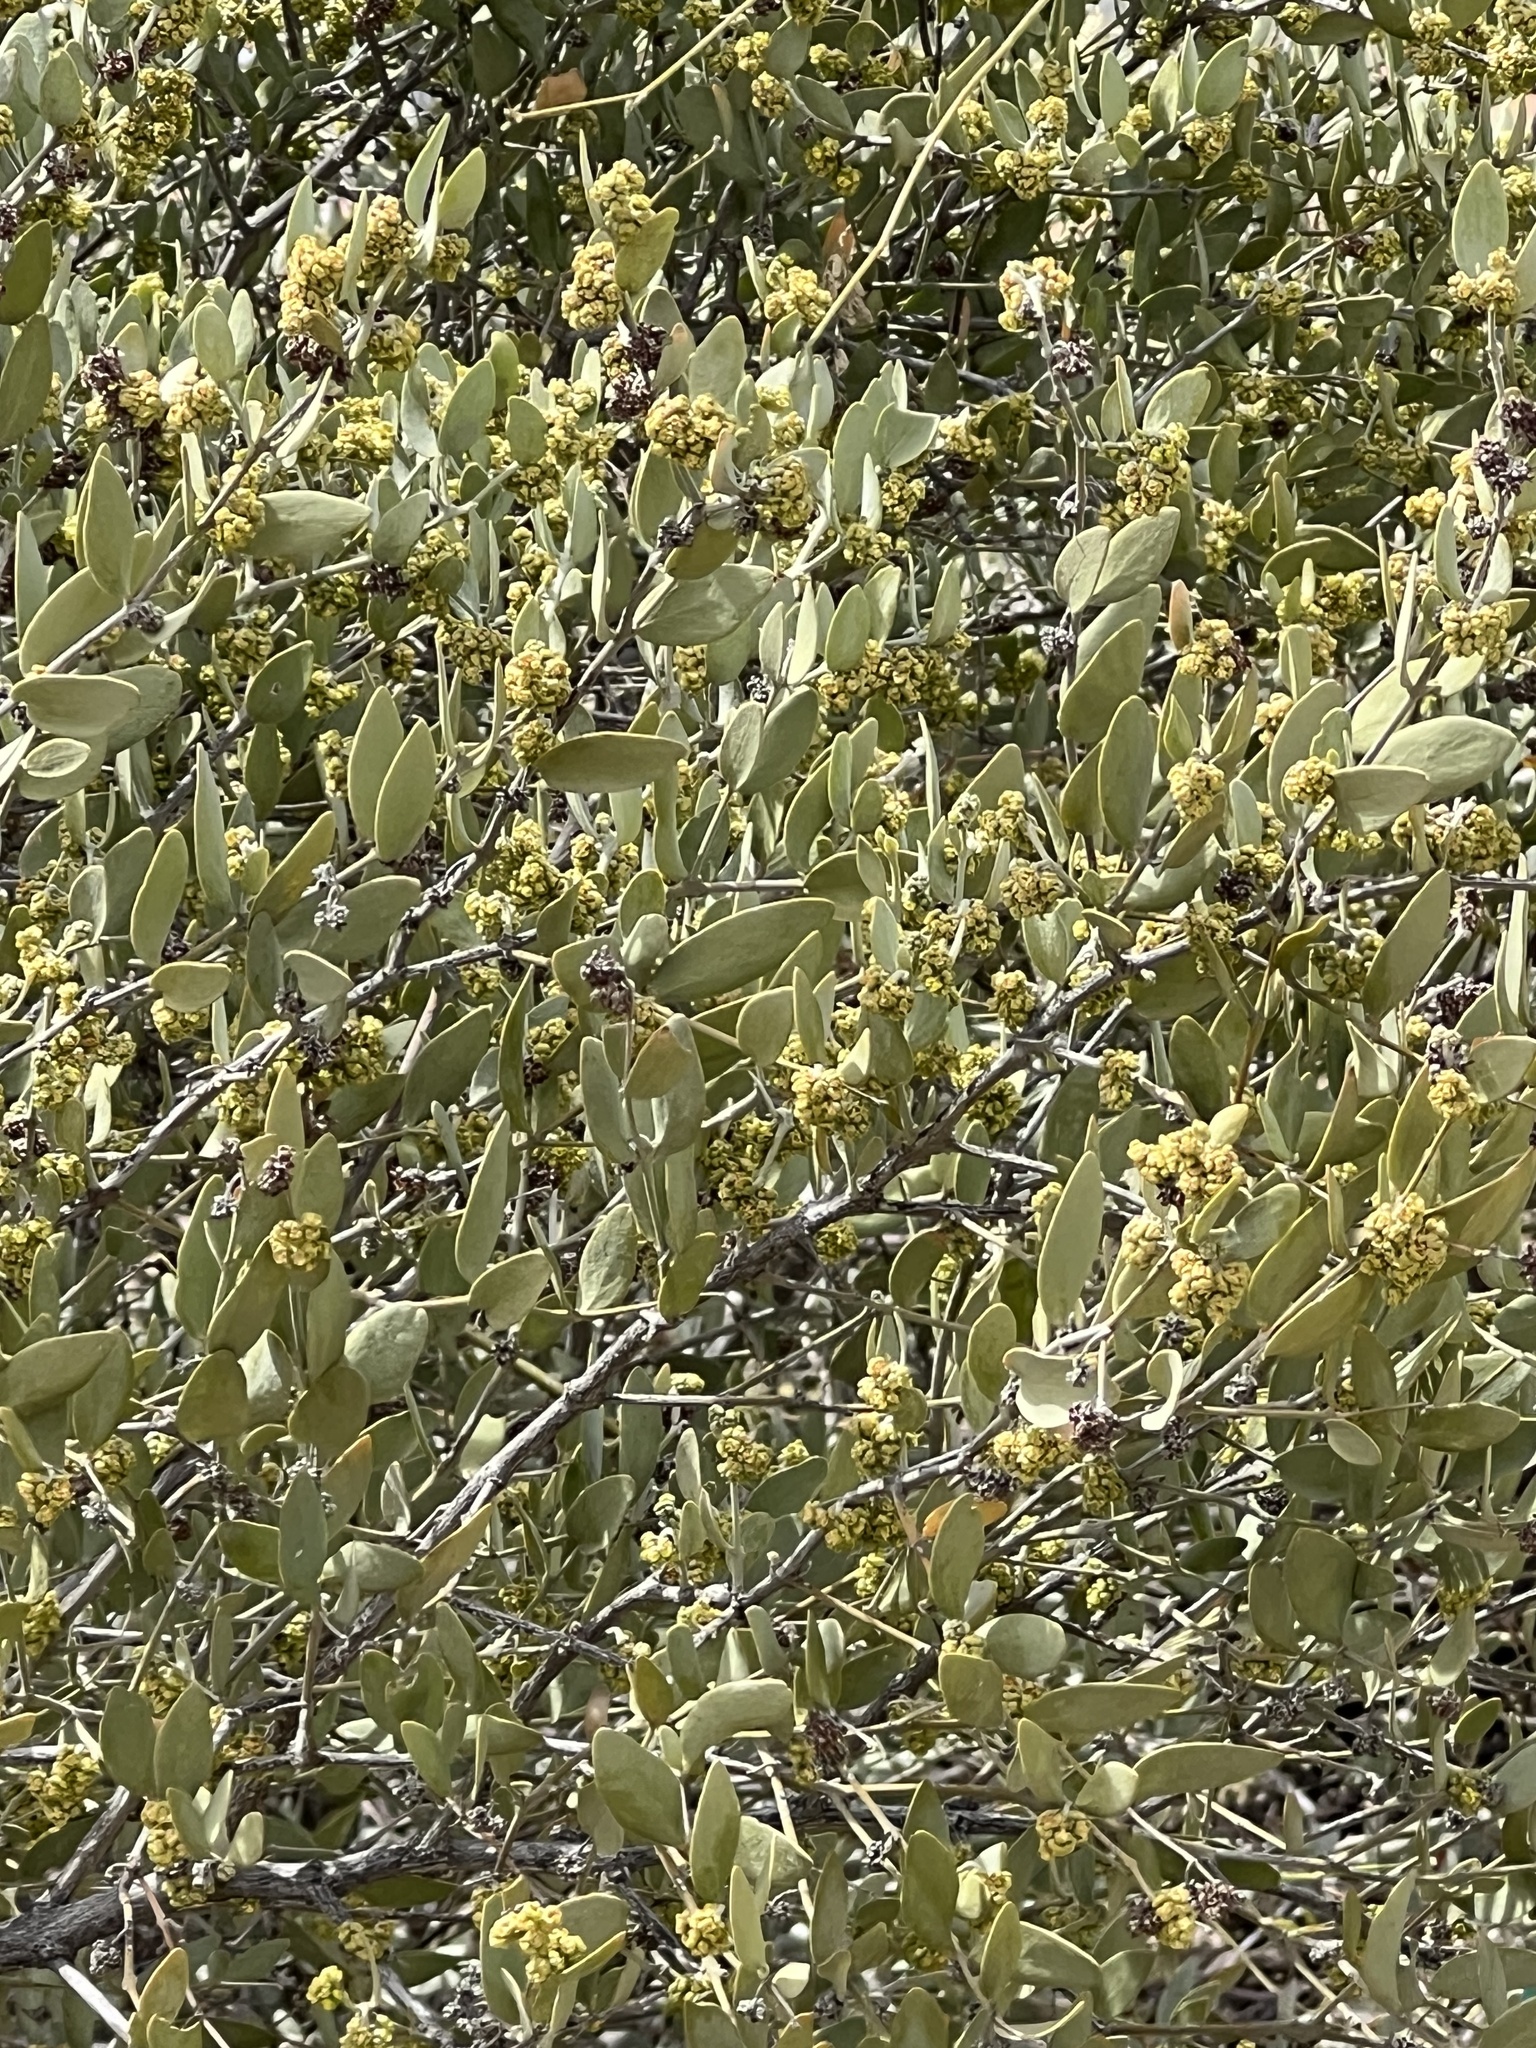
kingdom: Plantae
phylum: Tracheophyta
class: Magnoliopsida
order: Caryophyllales
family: Simmondsiaceae
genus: Simmondsia
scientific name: Simmondsia chinensis
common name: Jojoba
